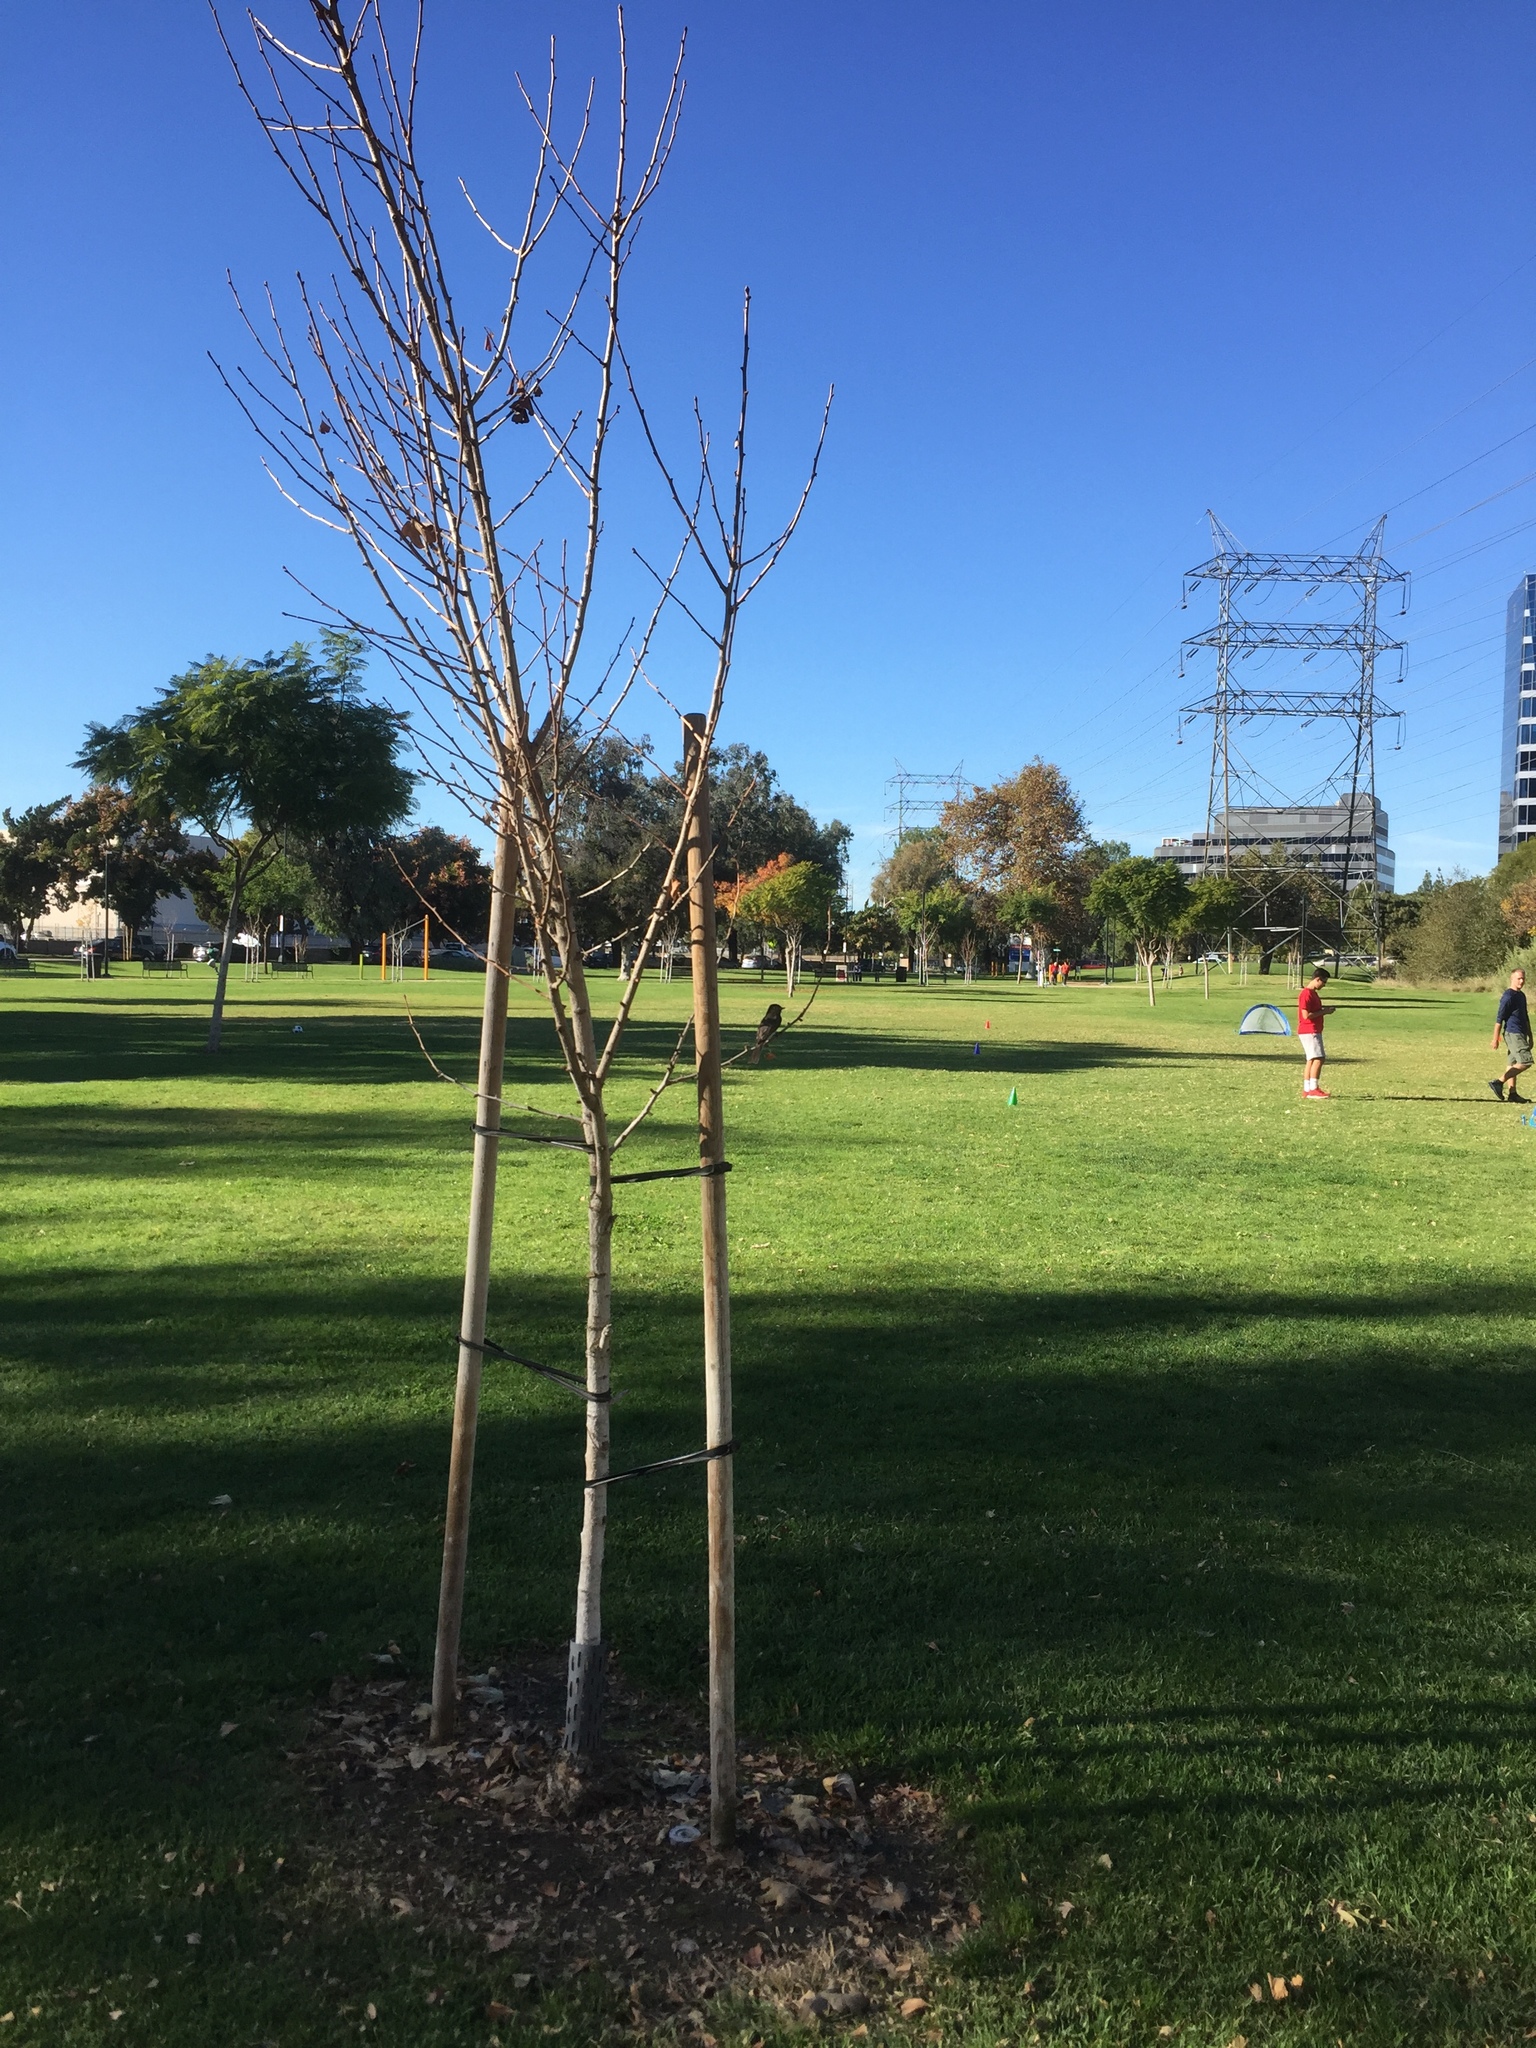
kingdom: Animalia
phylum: Chordata
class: Aves
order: Passeriformes
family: Tyrannidae
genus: Sayornis
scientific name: Sayornis nigricans
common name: Black phoebe
